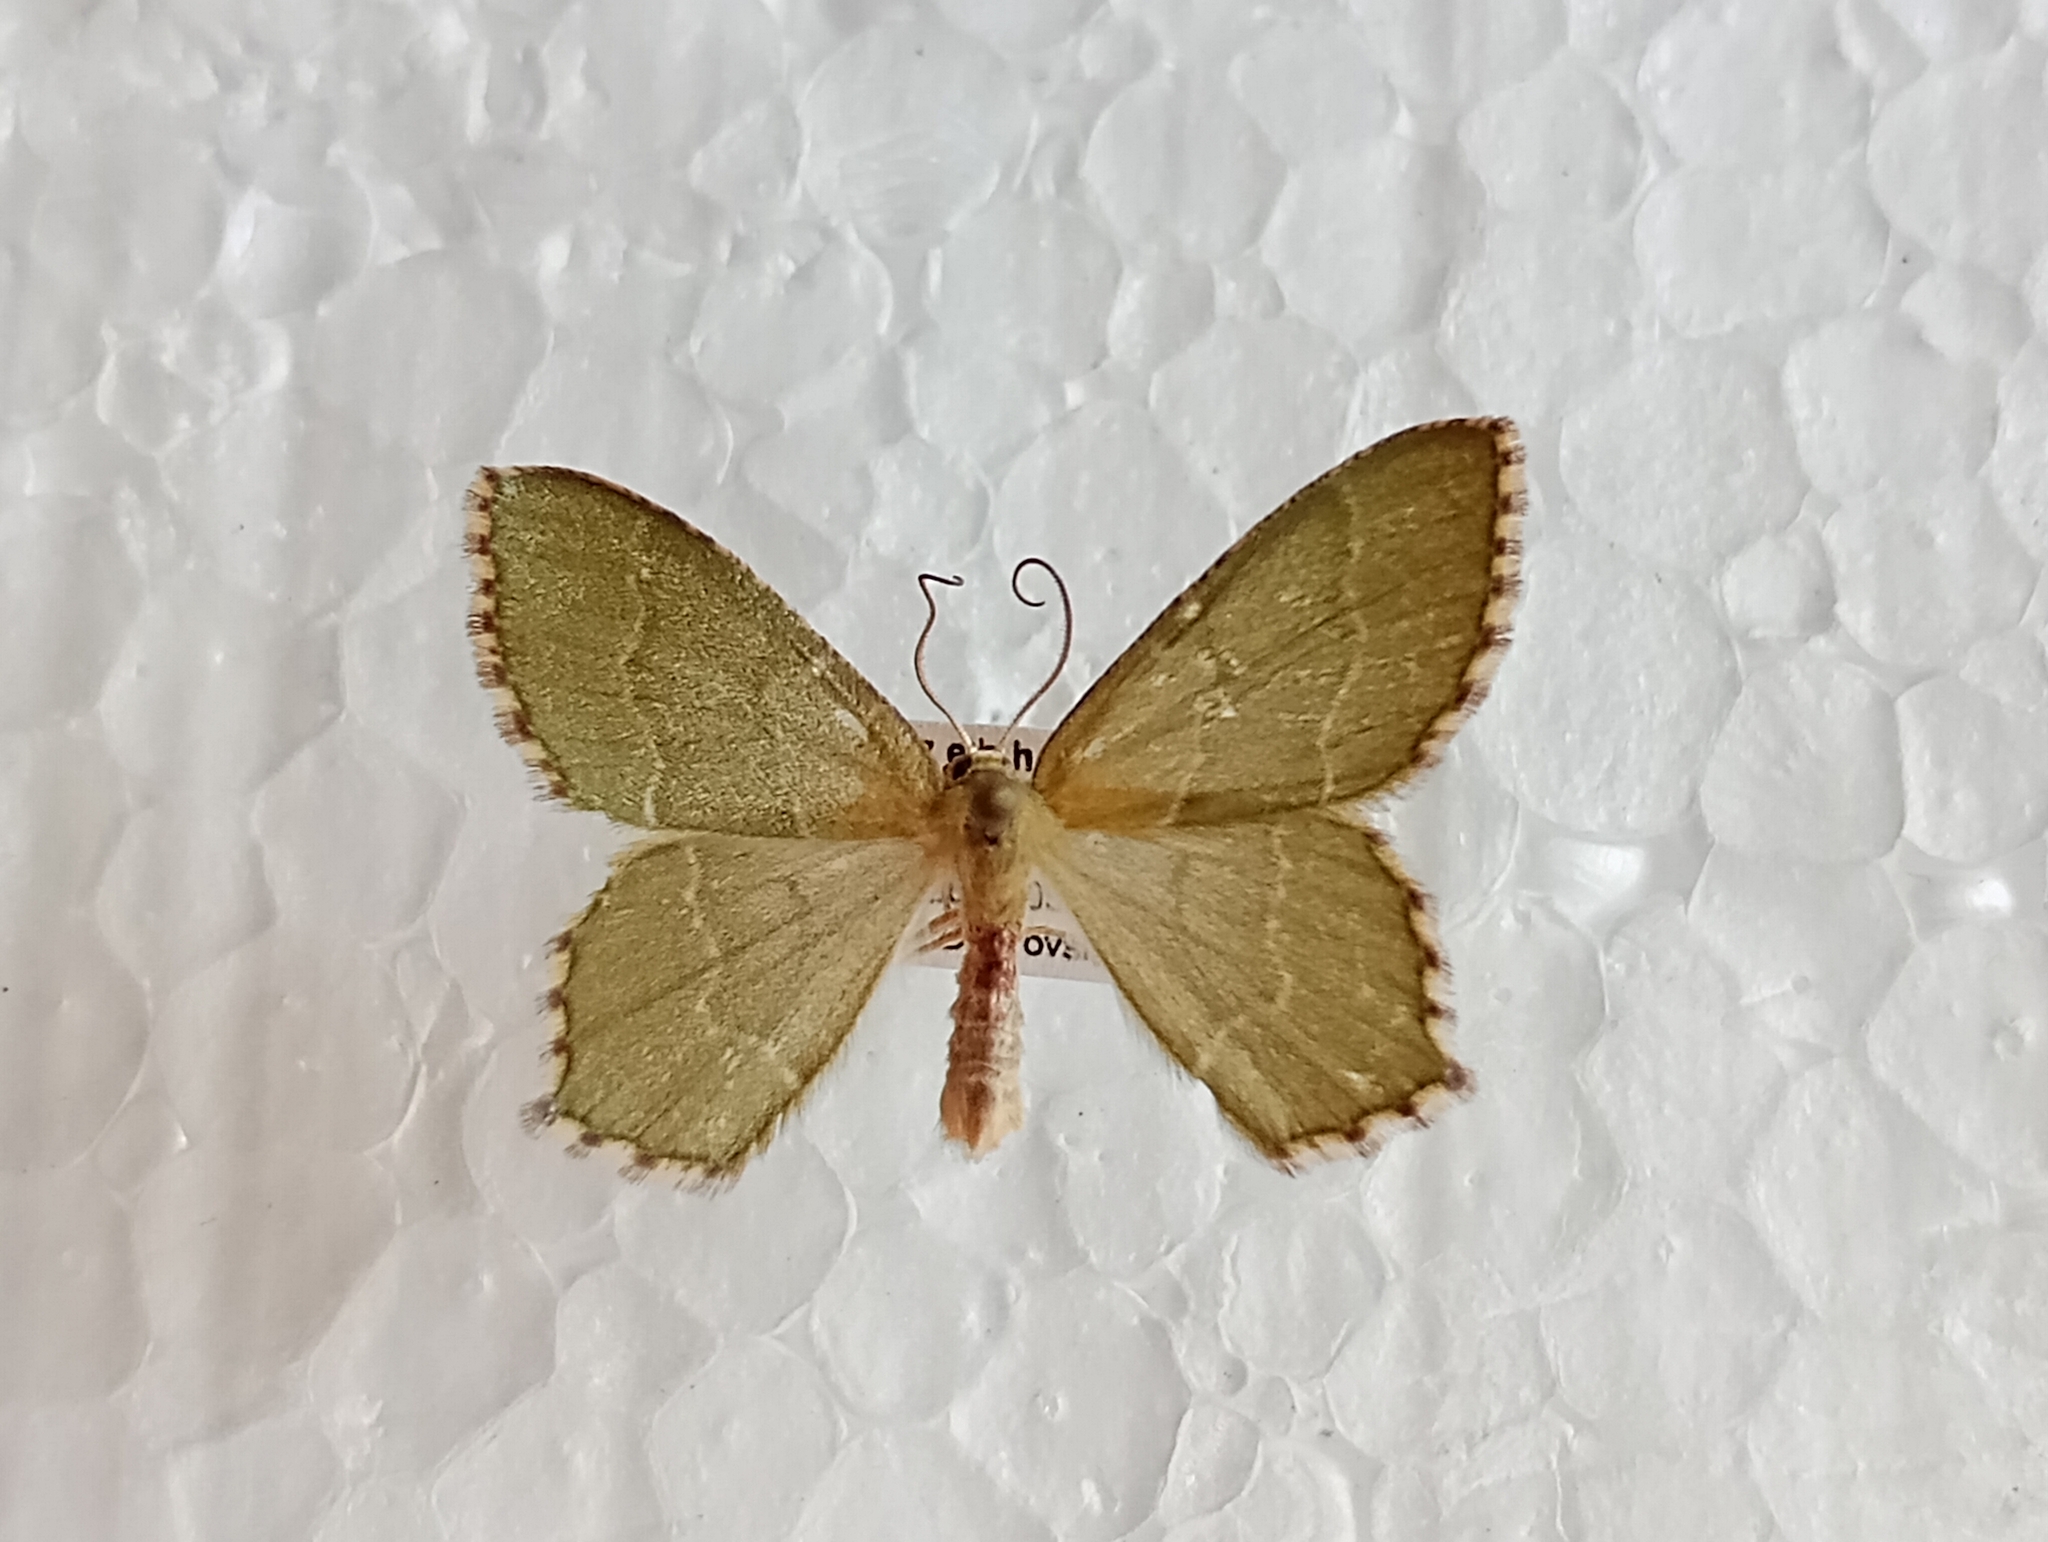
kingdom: Animalia
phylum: Arthropoda
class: Insecta
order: Lepidoptera
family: Geometridae
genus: Hemithea
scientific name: Hemithea aestivaria
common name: Common emerald
